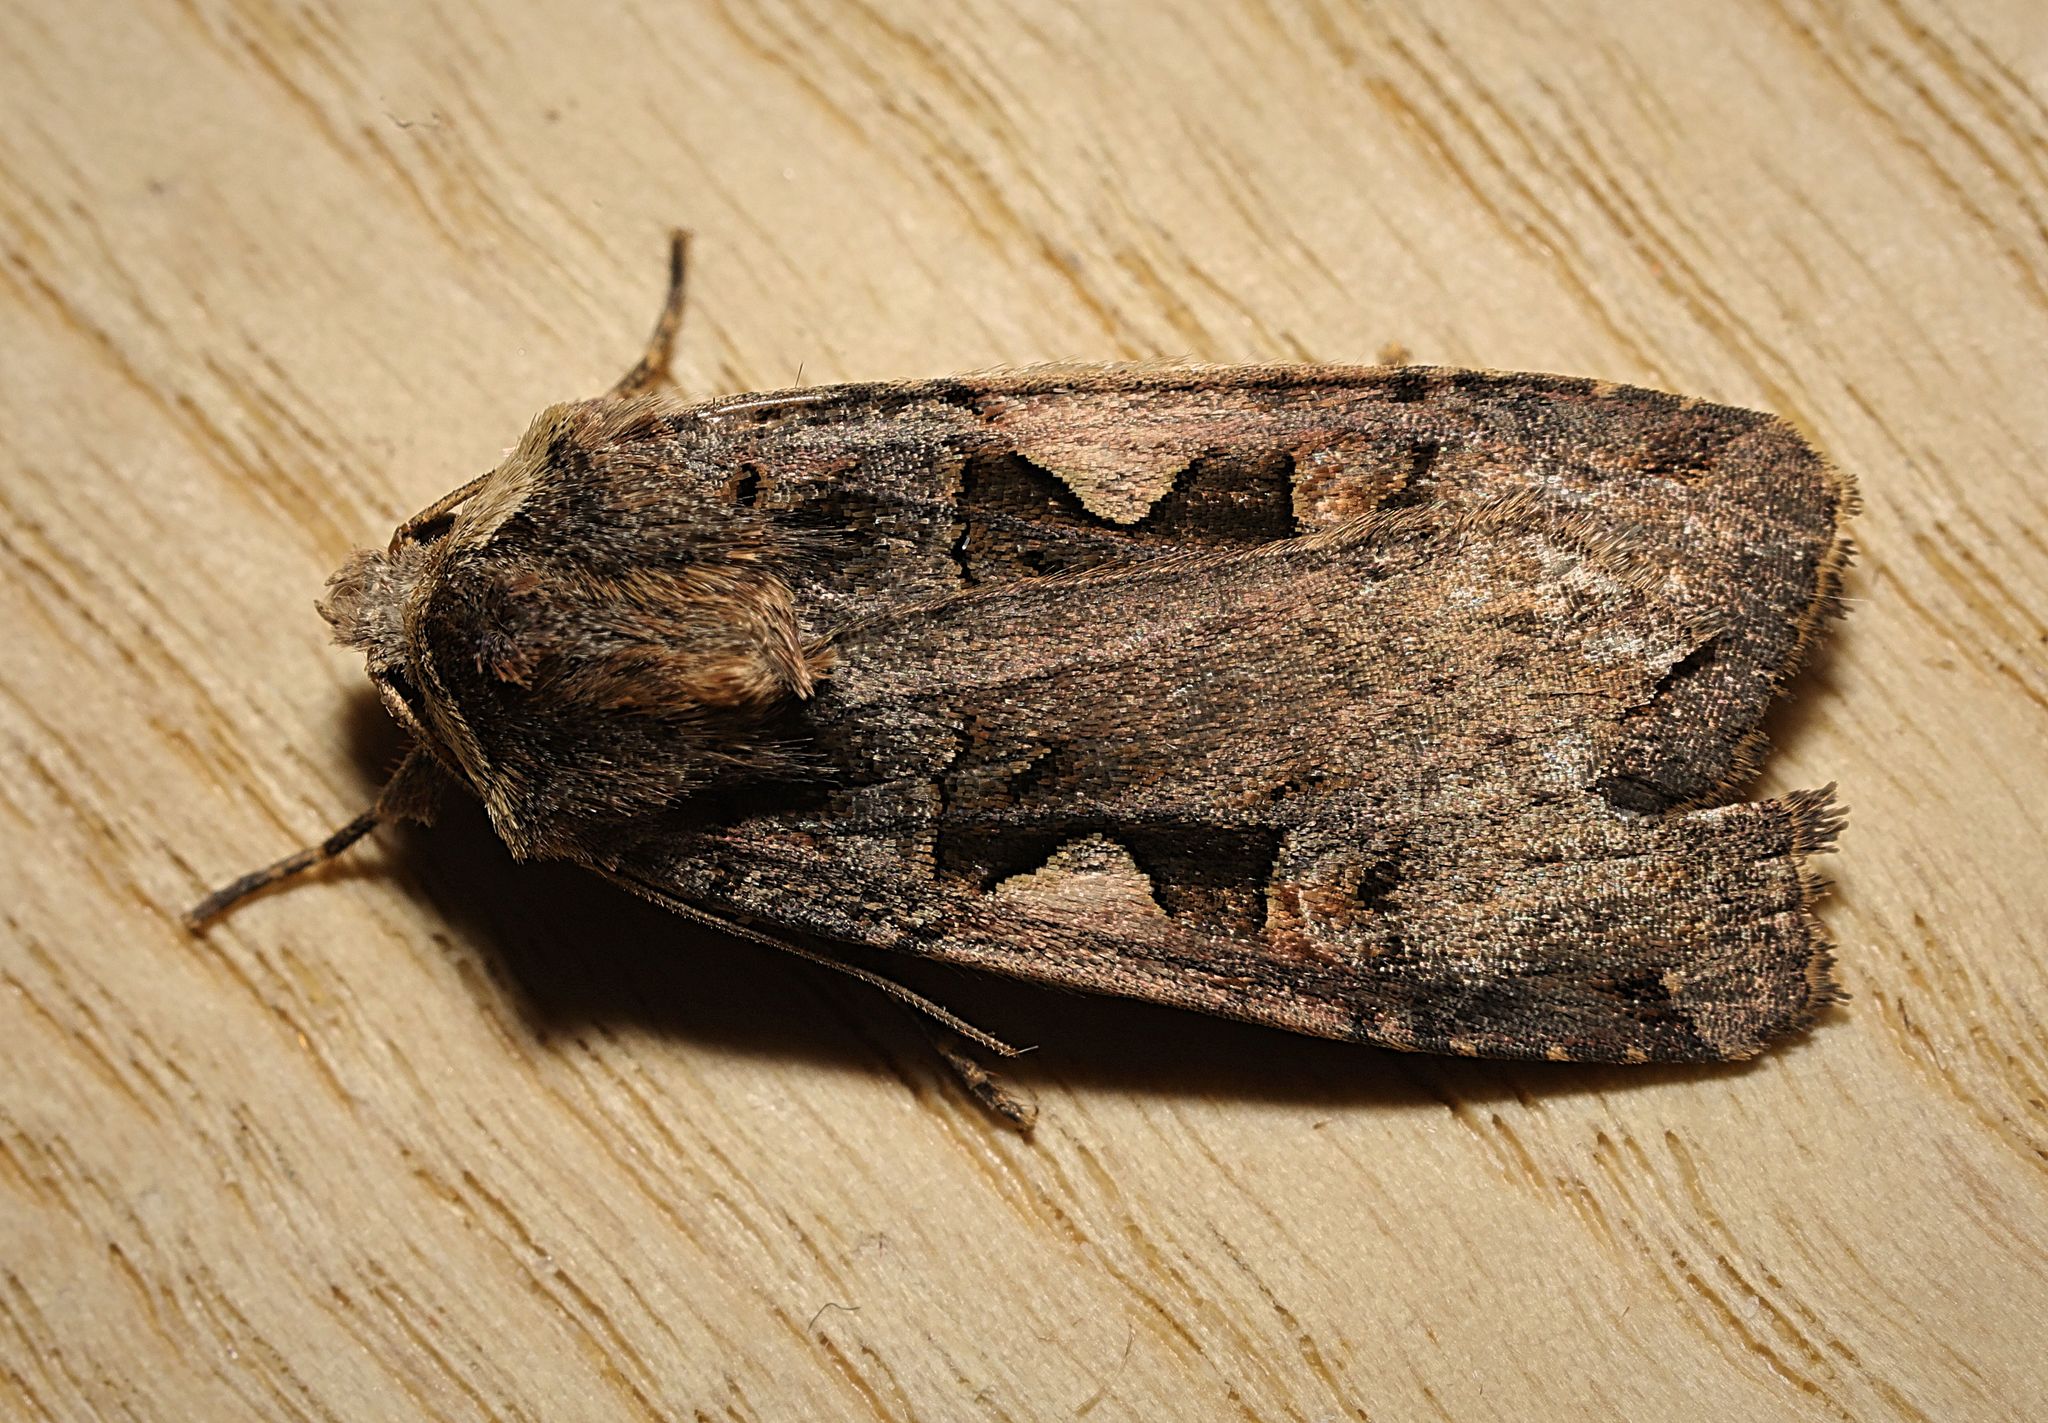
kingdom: Animalia
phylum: Arthropoda
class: Insecta
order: Lepidoptera
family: Noctuidae
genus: Xestia
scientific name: Xestia c-nigrum
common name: Setaceous hebrew character
